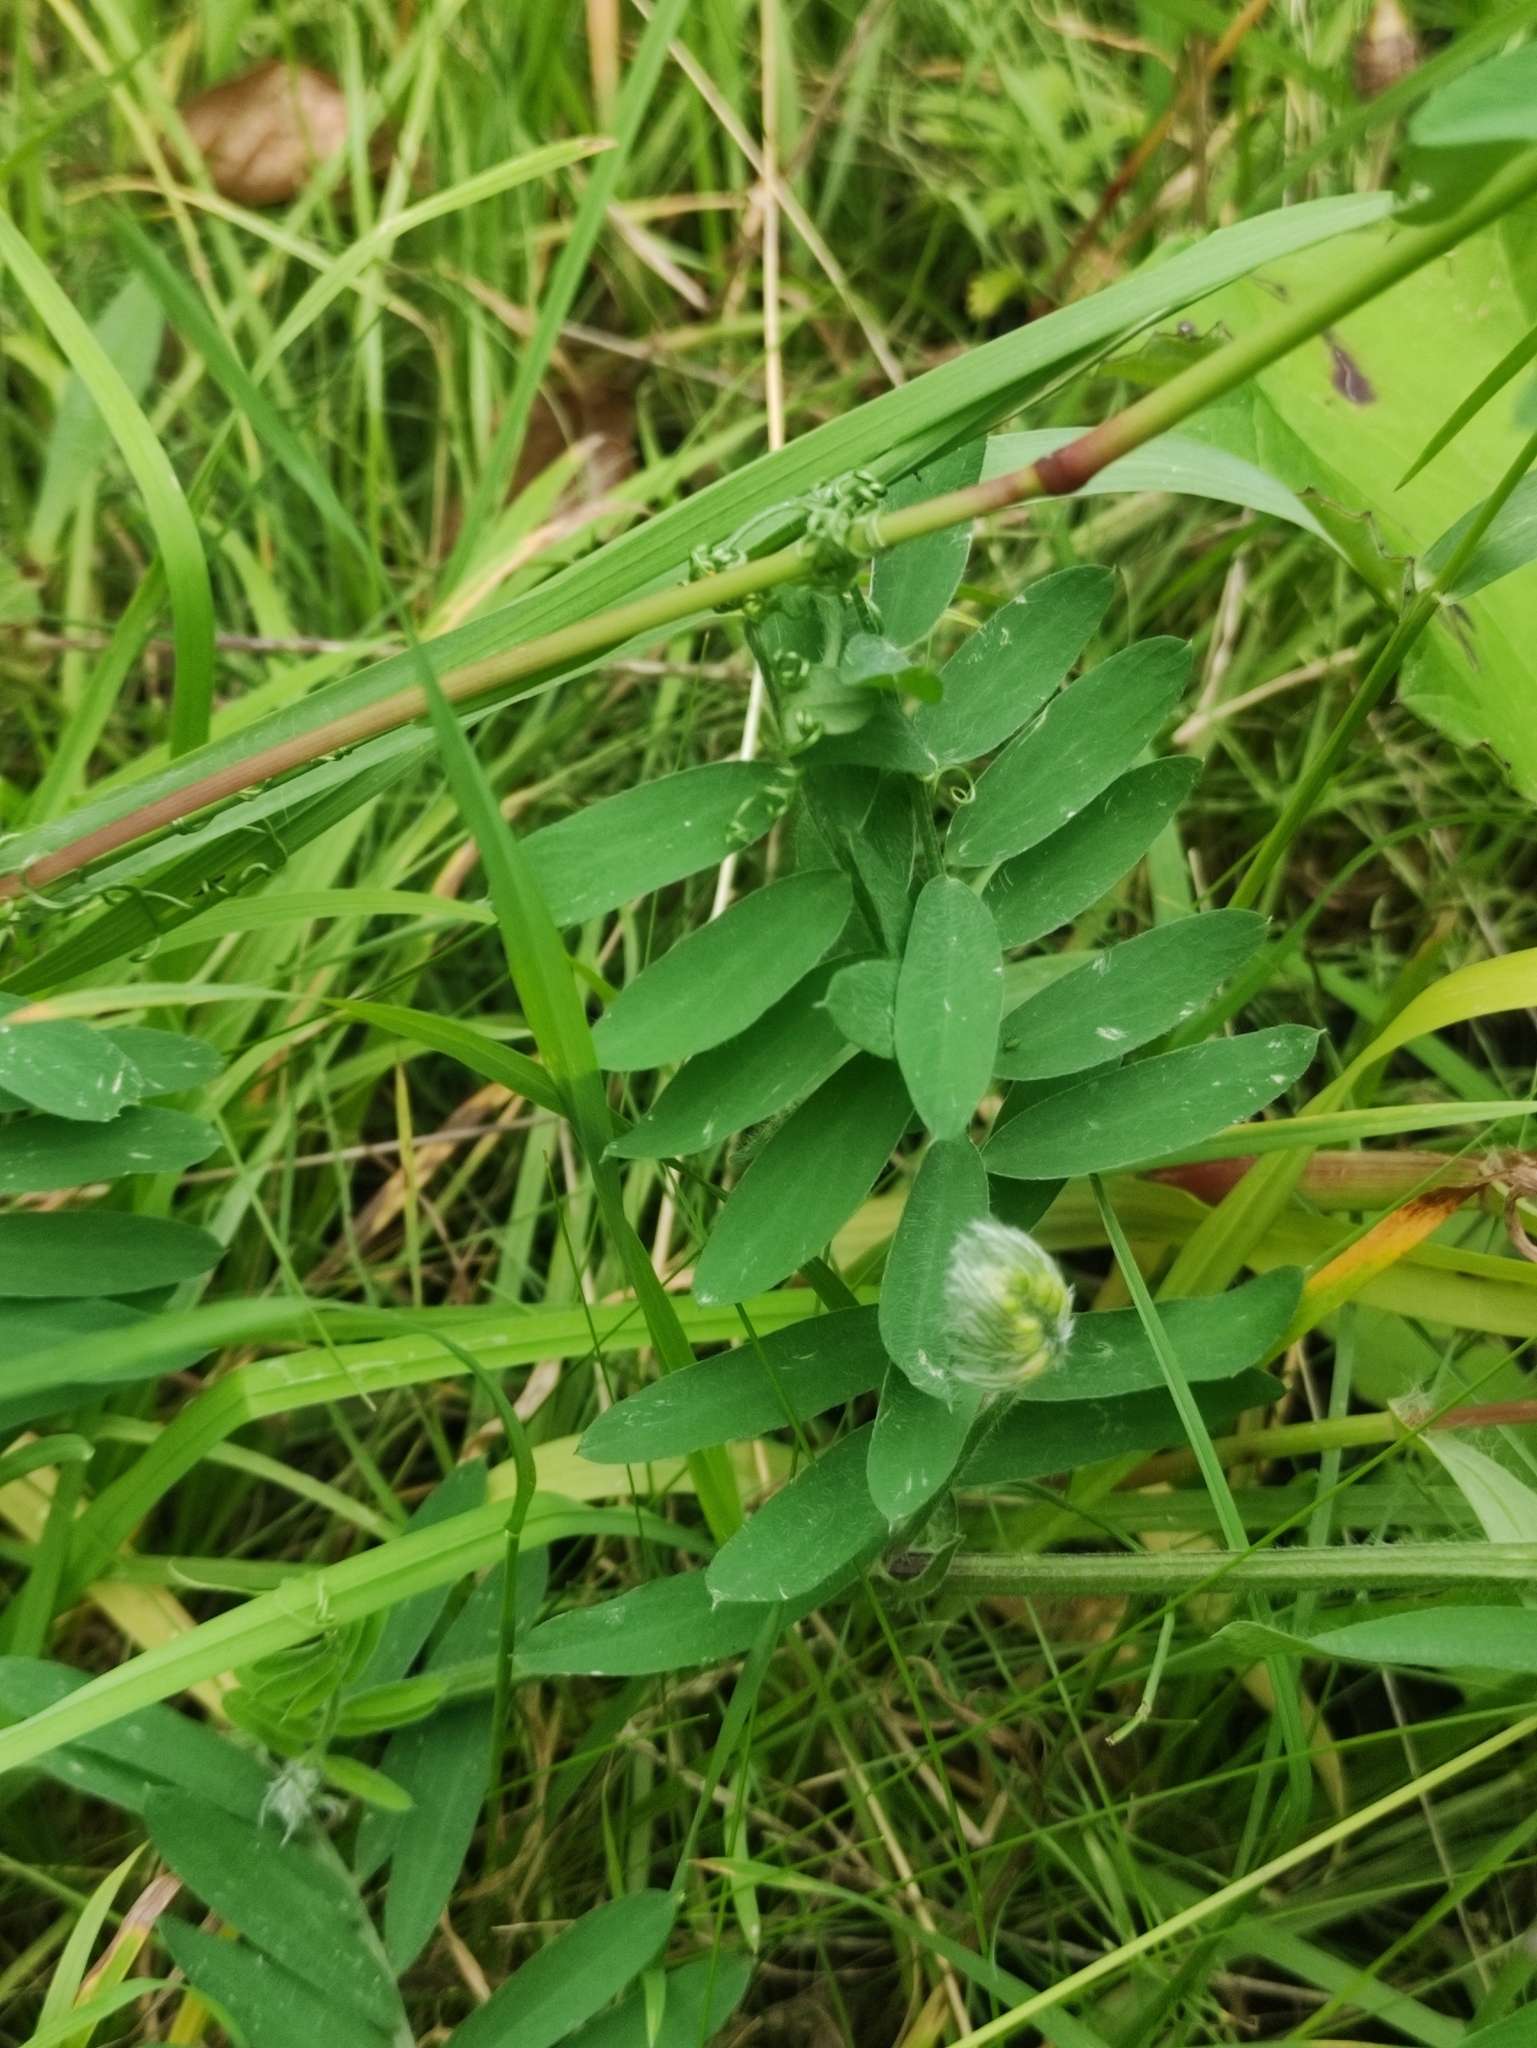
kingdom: Plantae
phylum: Tracheophyta
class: Magnoliopsida
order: Fabales
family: Fabaceae
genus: Vicia
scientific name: Vicia cracca
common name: Bird vetch
